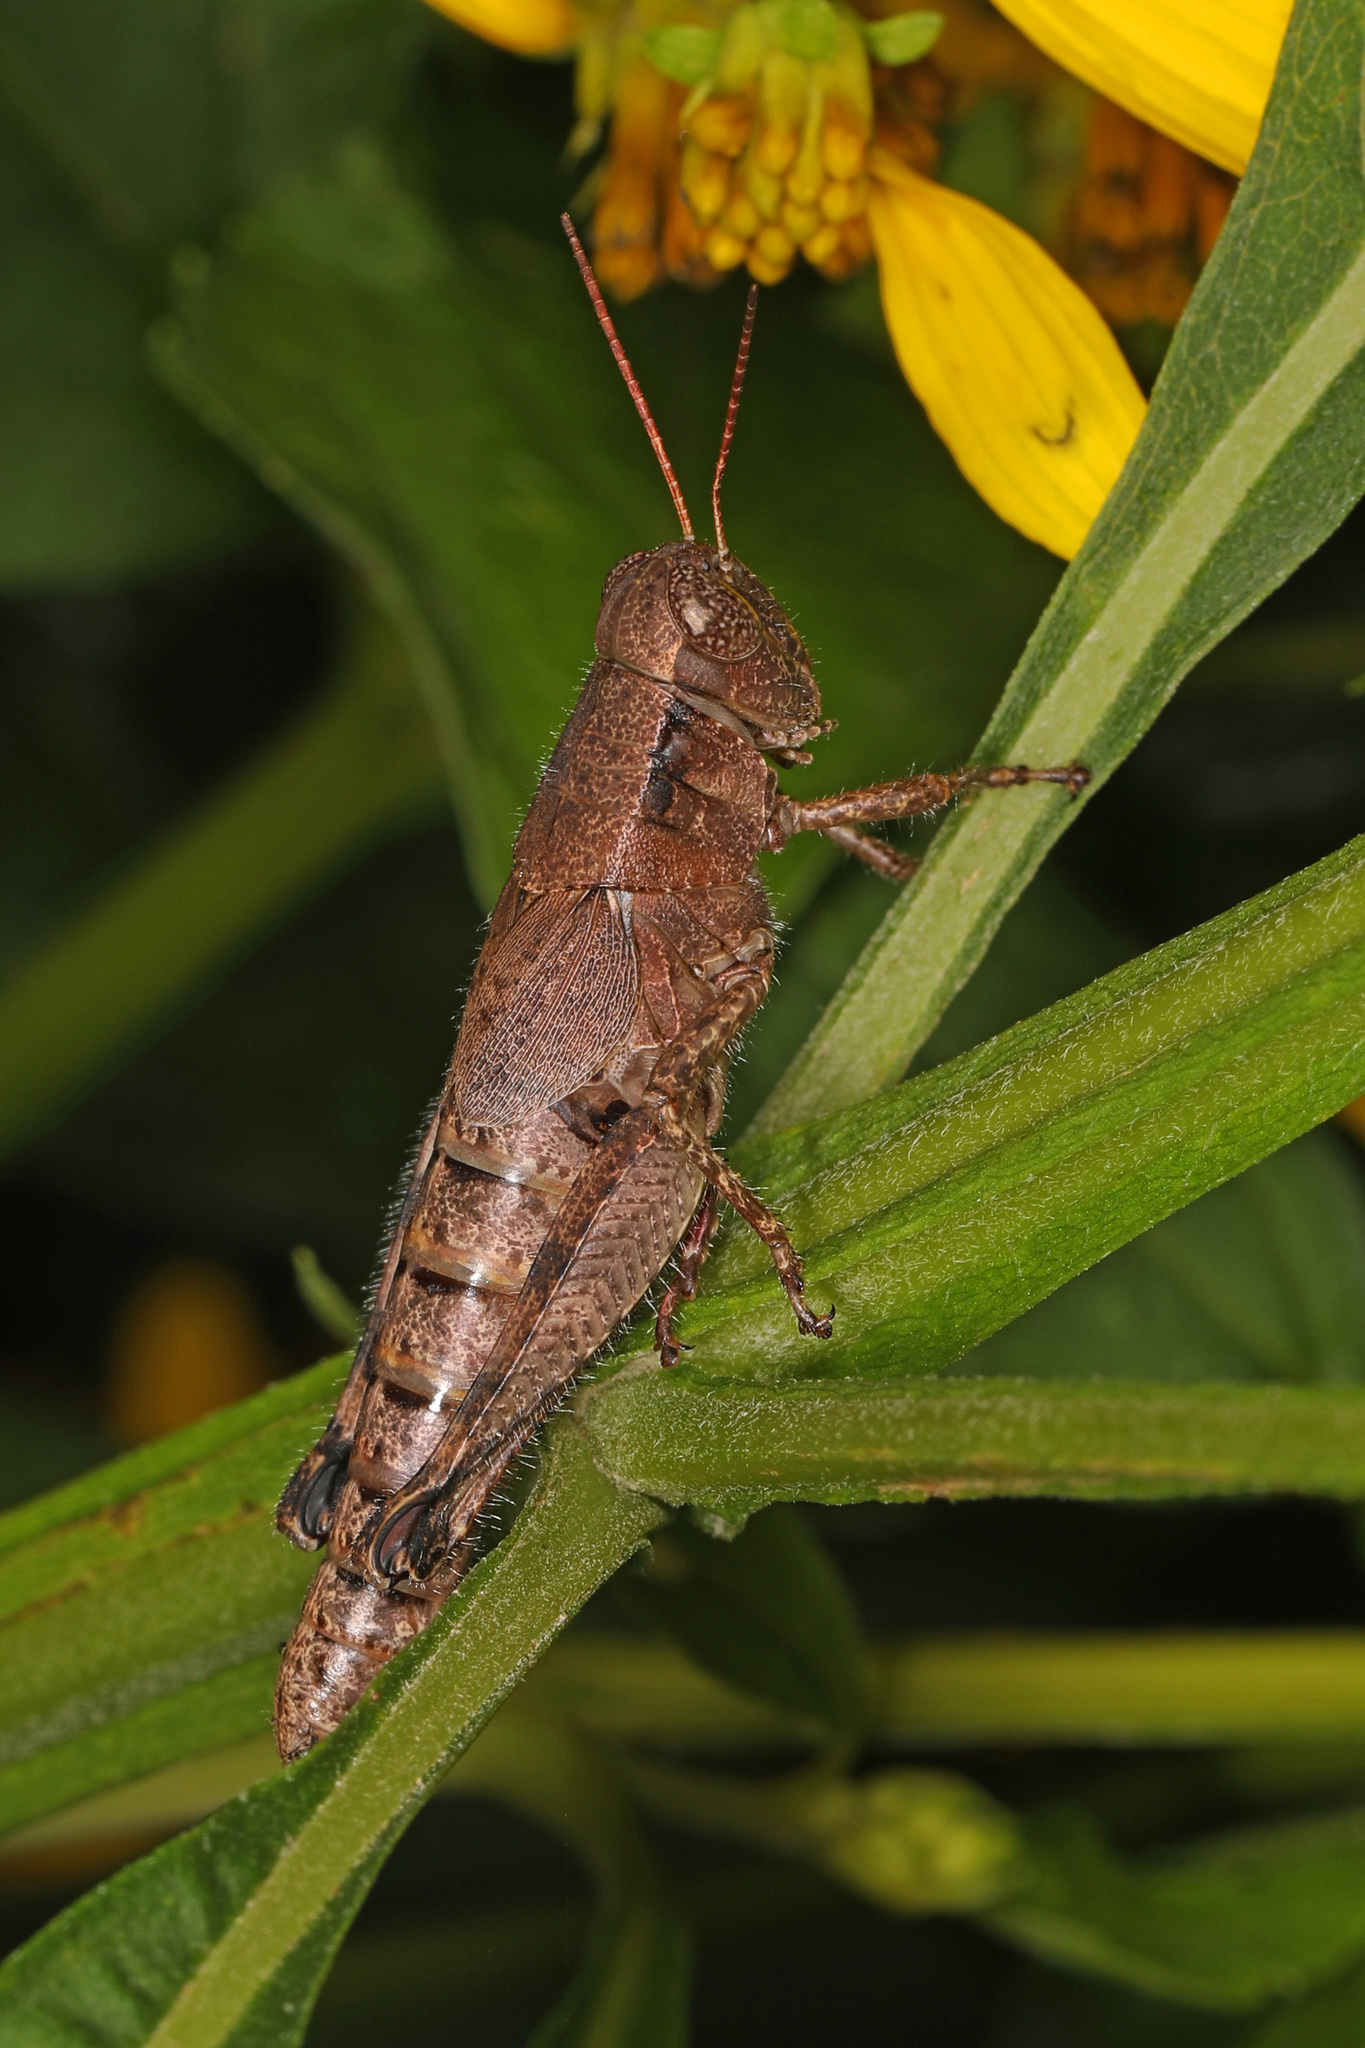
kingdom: Animalia
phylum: Arthropoda
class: Insecta
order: Orthoptera
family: Acrididae
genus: Melanoplus
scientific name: Melanoplus scudderi
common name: Scudder's short-winged locust
